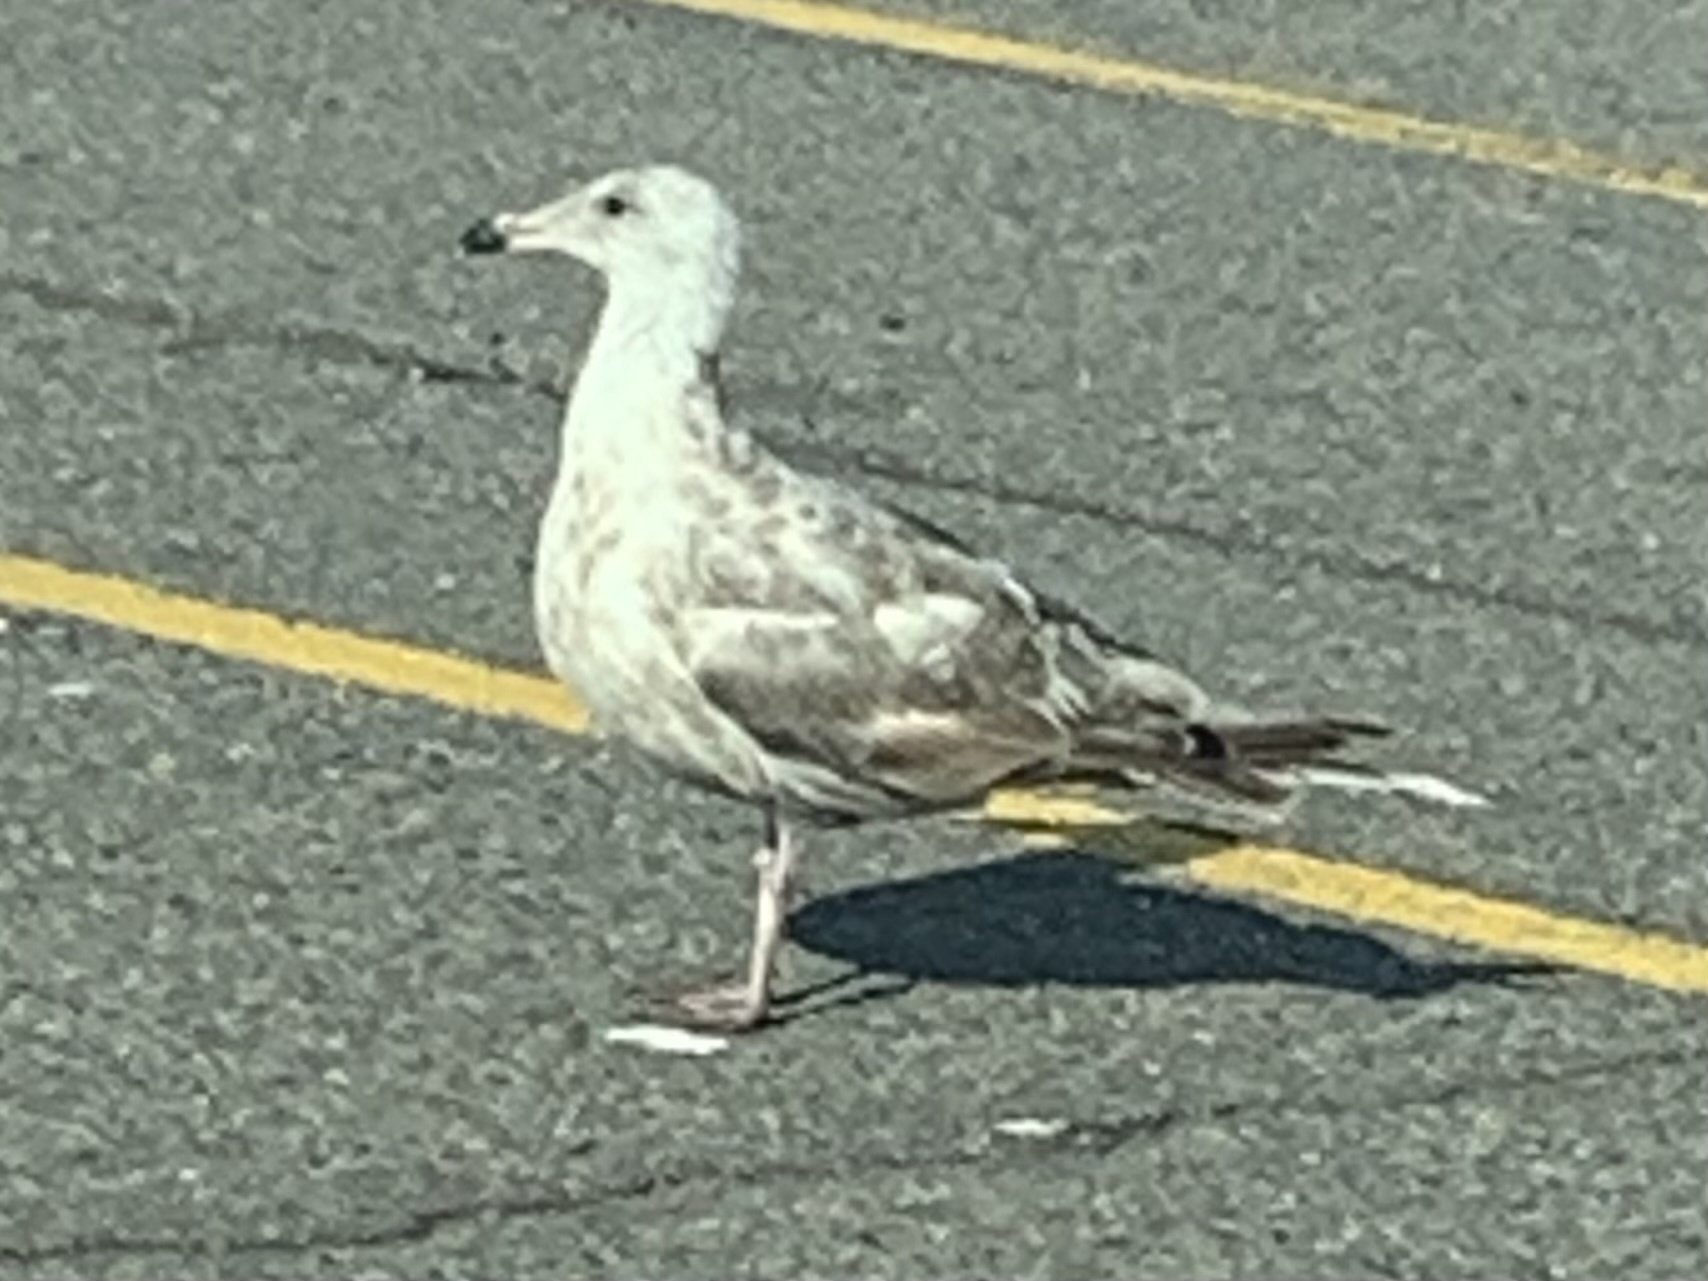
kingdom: Animalia
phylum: Chordata
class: Aves
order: Charadriiformes
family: Laridae
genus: Larus
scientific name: Larus argentatus
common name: Herring gull
